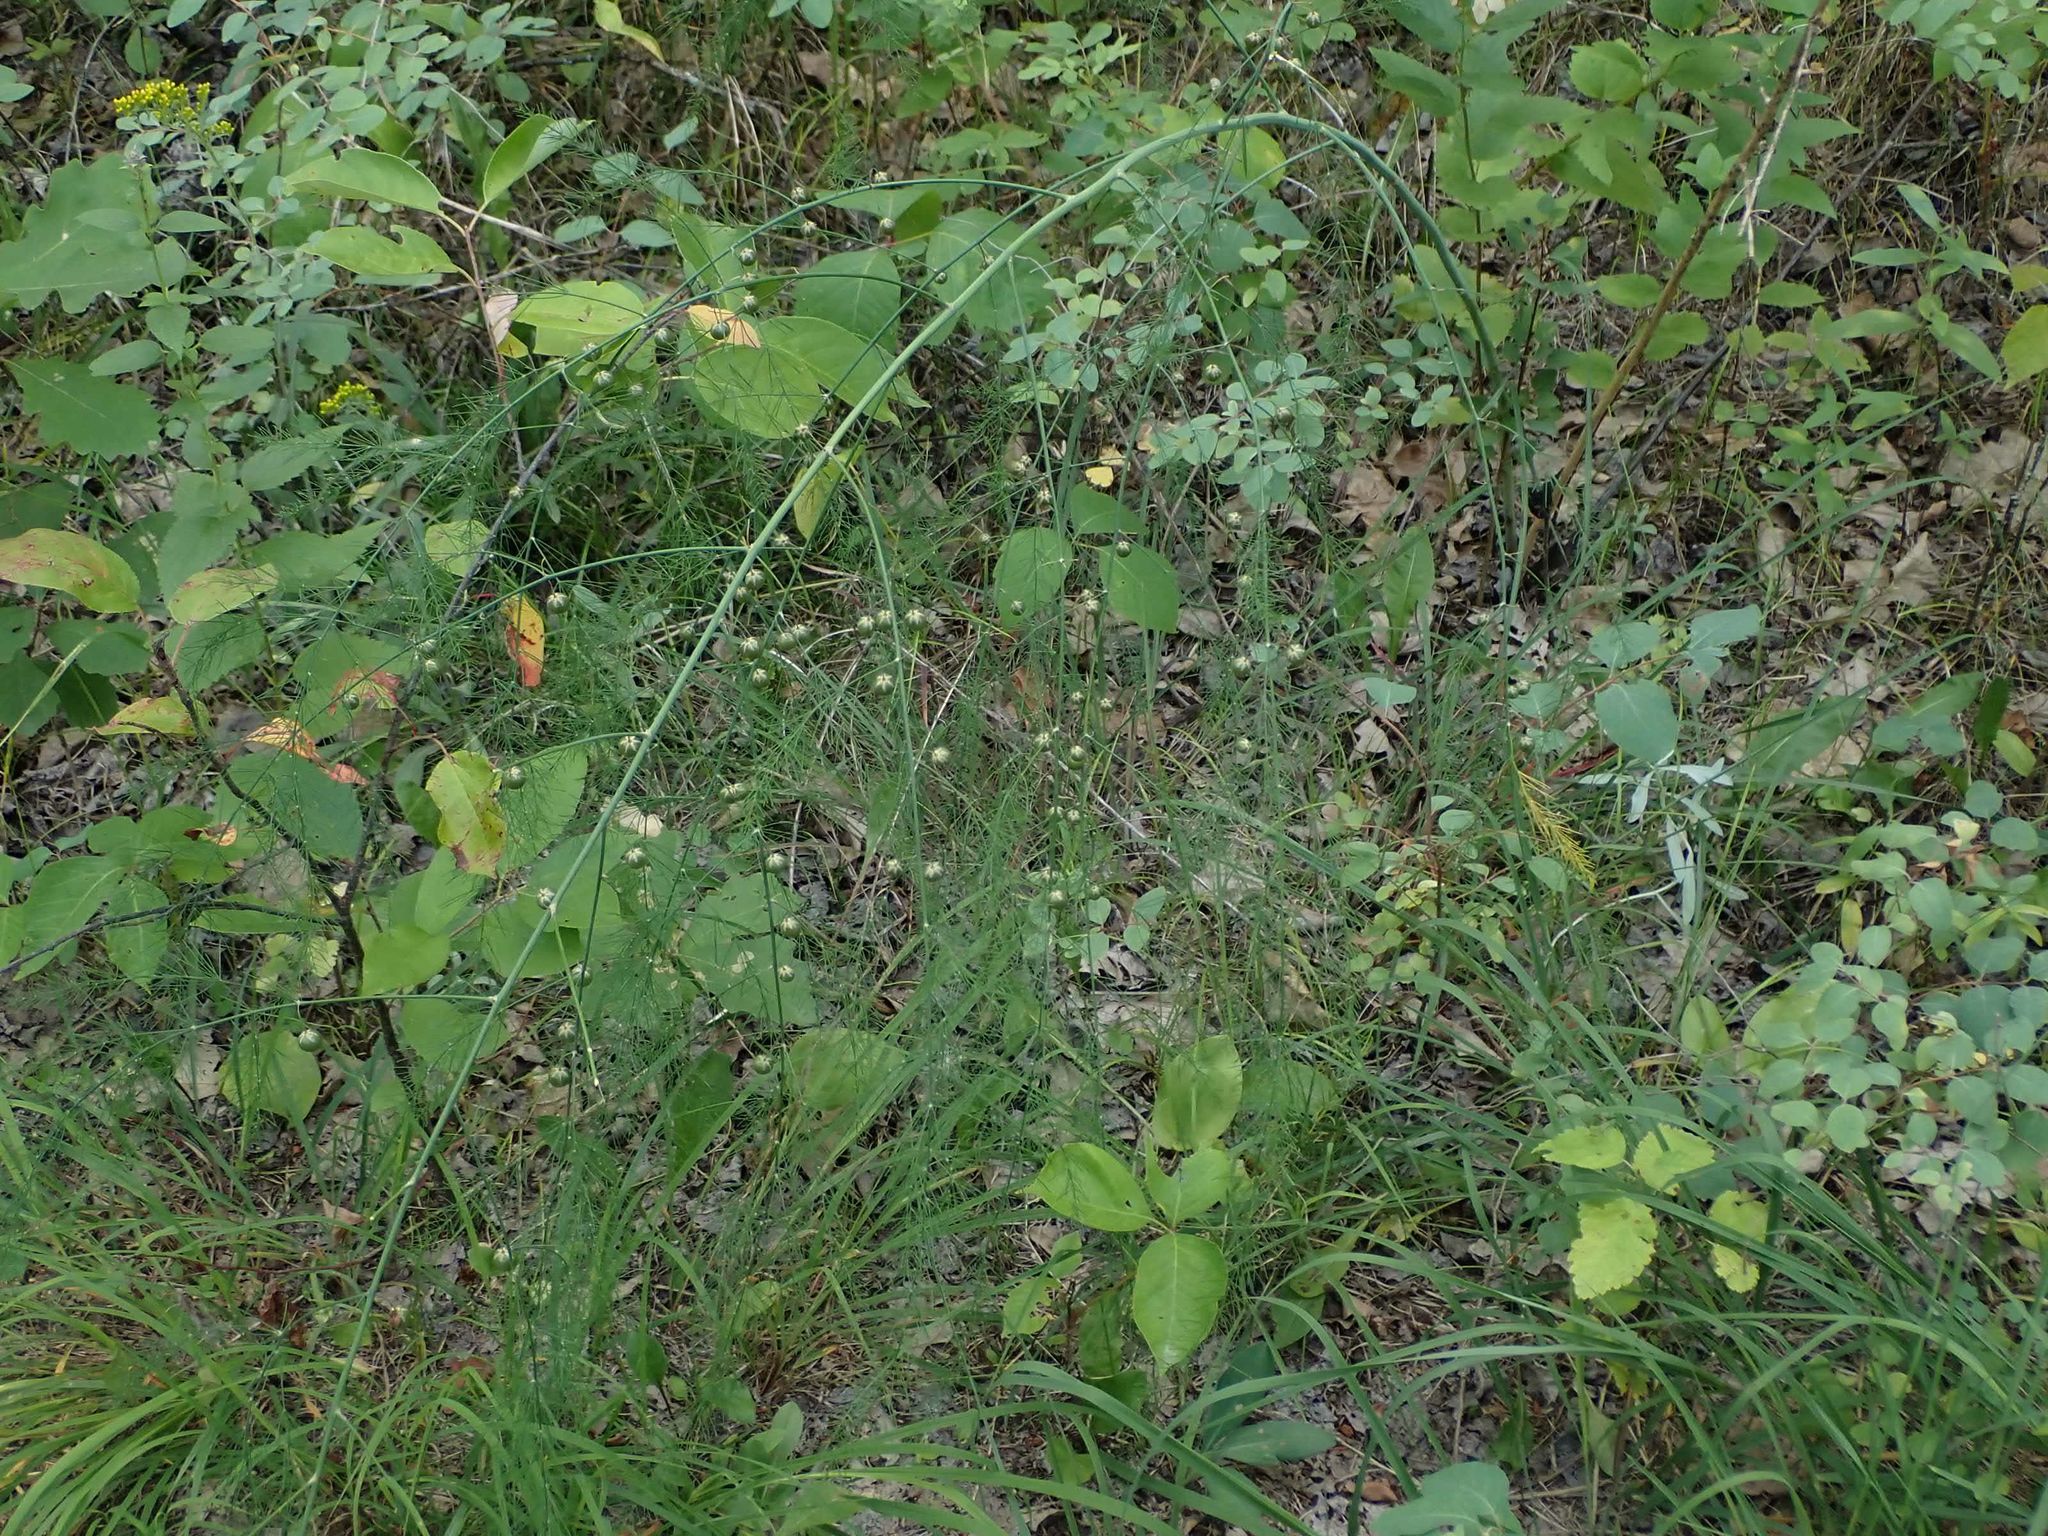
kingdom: Plantae
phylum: Tracheophyta
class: Liliopsida
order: Asparagales
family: Asparagaceae
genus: Asparagus
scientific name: Asparagus officinalis
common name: Garden asparagus
